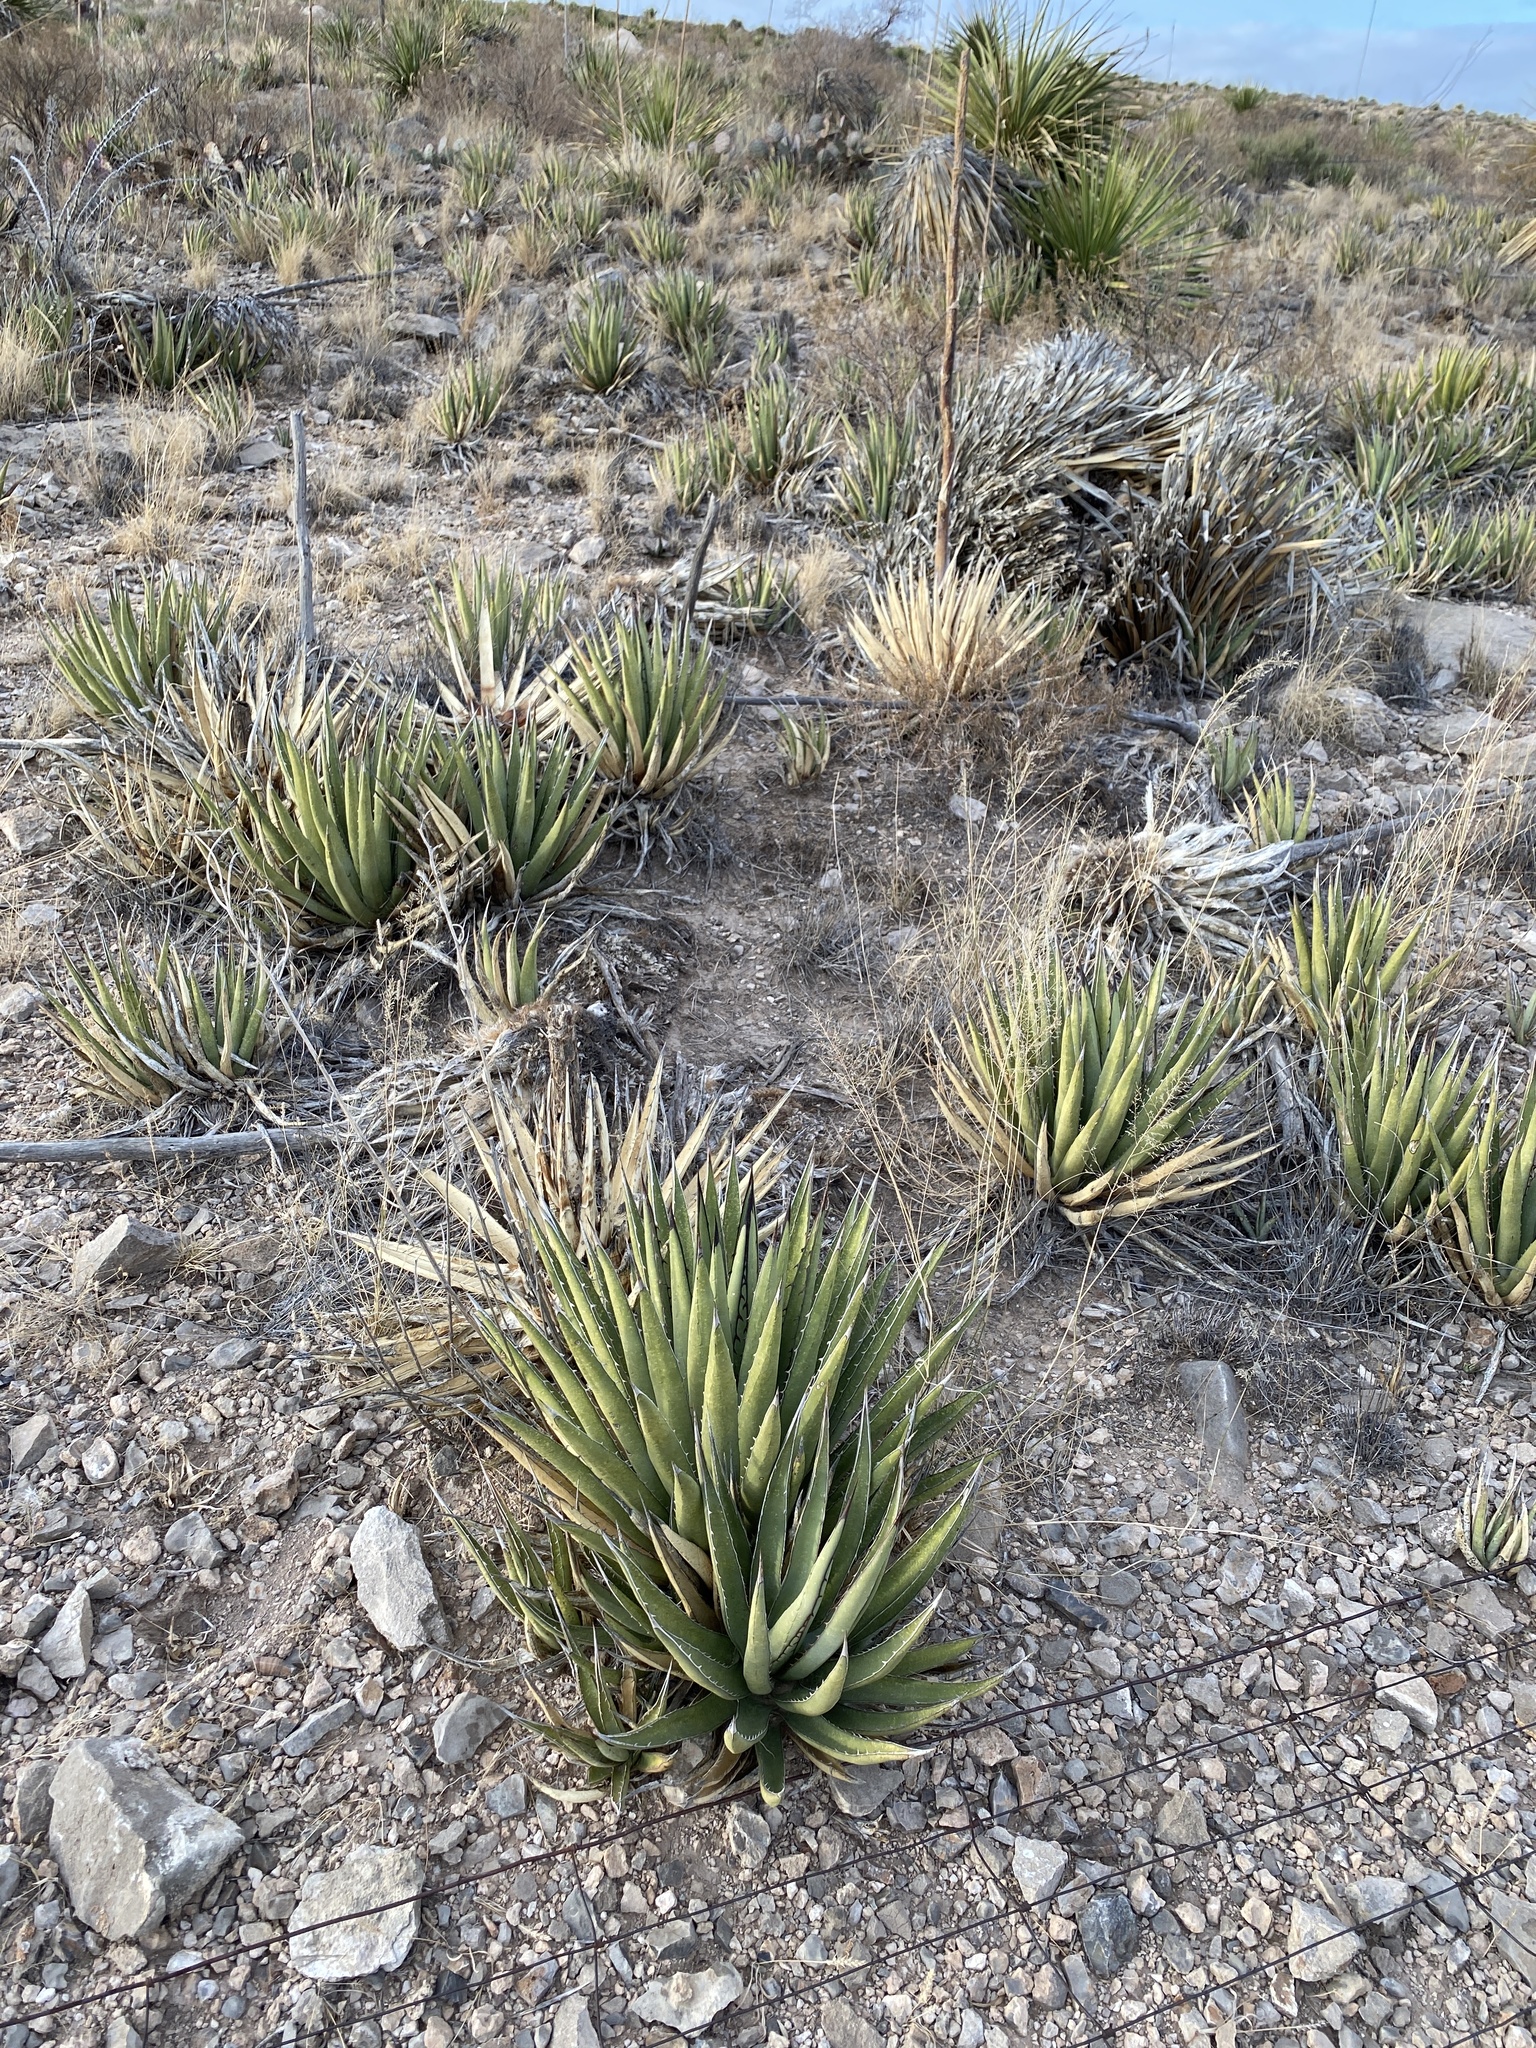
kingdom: Plantae
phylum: Tracheophyta
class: Liliopsida
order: Asparagales
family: Asparagaceae
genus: Agave
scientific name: Agave lechuguilla
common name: Lecheguilla agave
